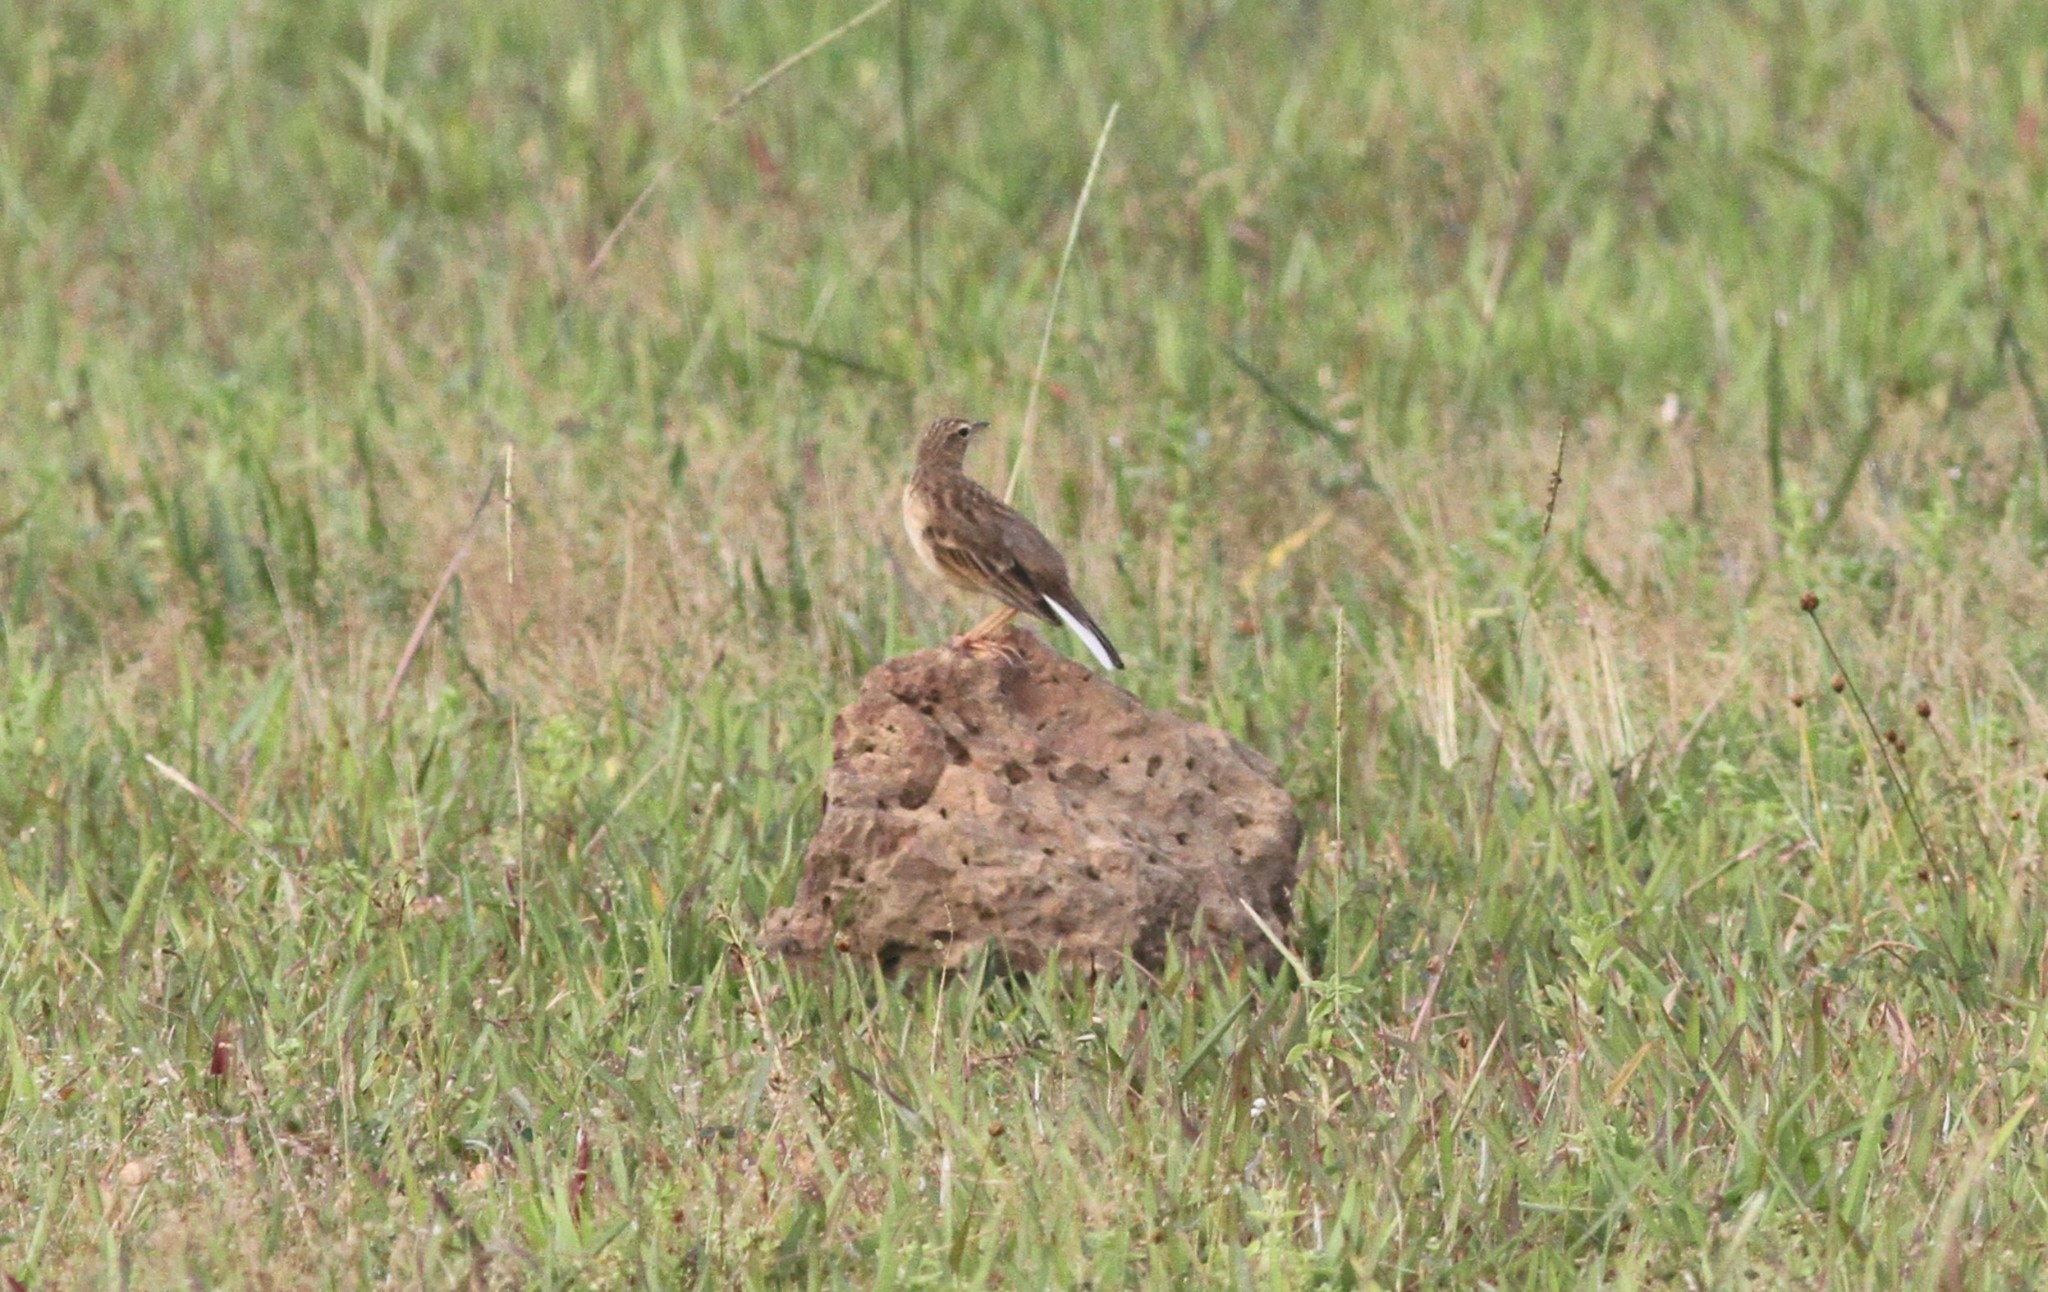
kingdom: Animalia
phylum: Chordata
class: Aves
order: Passeriformes
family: Motacillidae
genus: Anthus
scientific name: Anthus rufulus
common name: Paddyfield pipit
